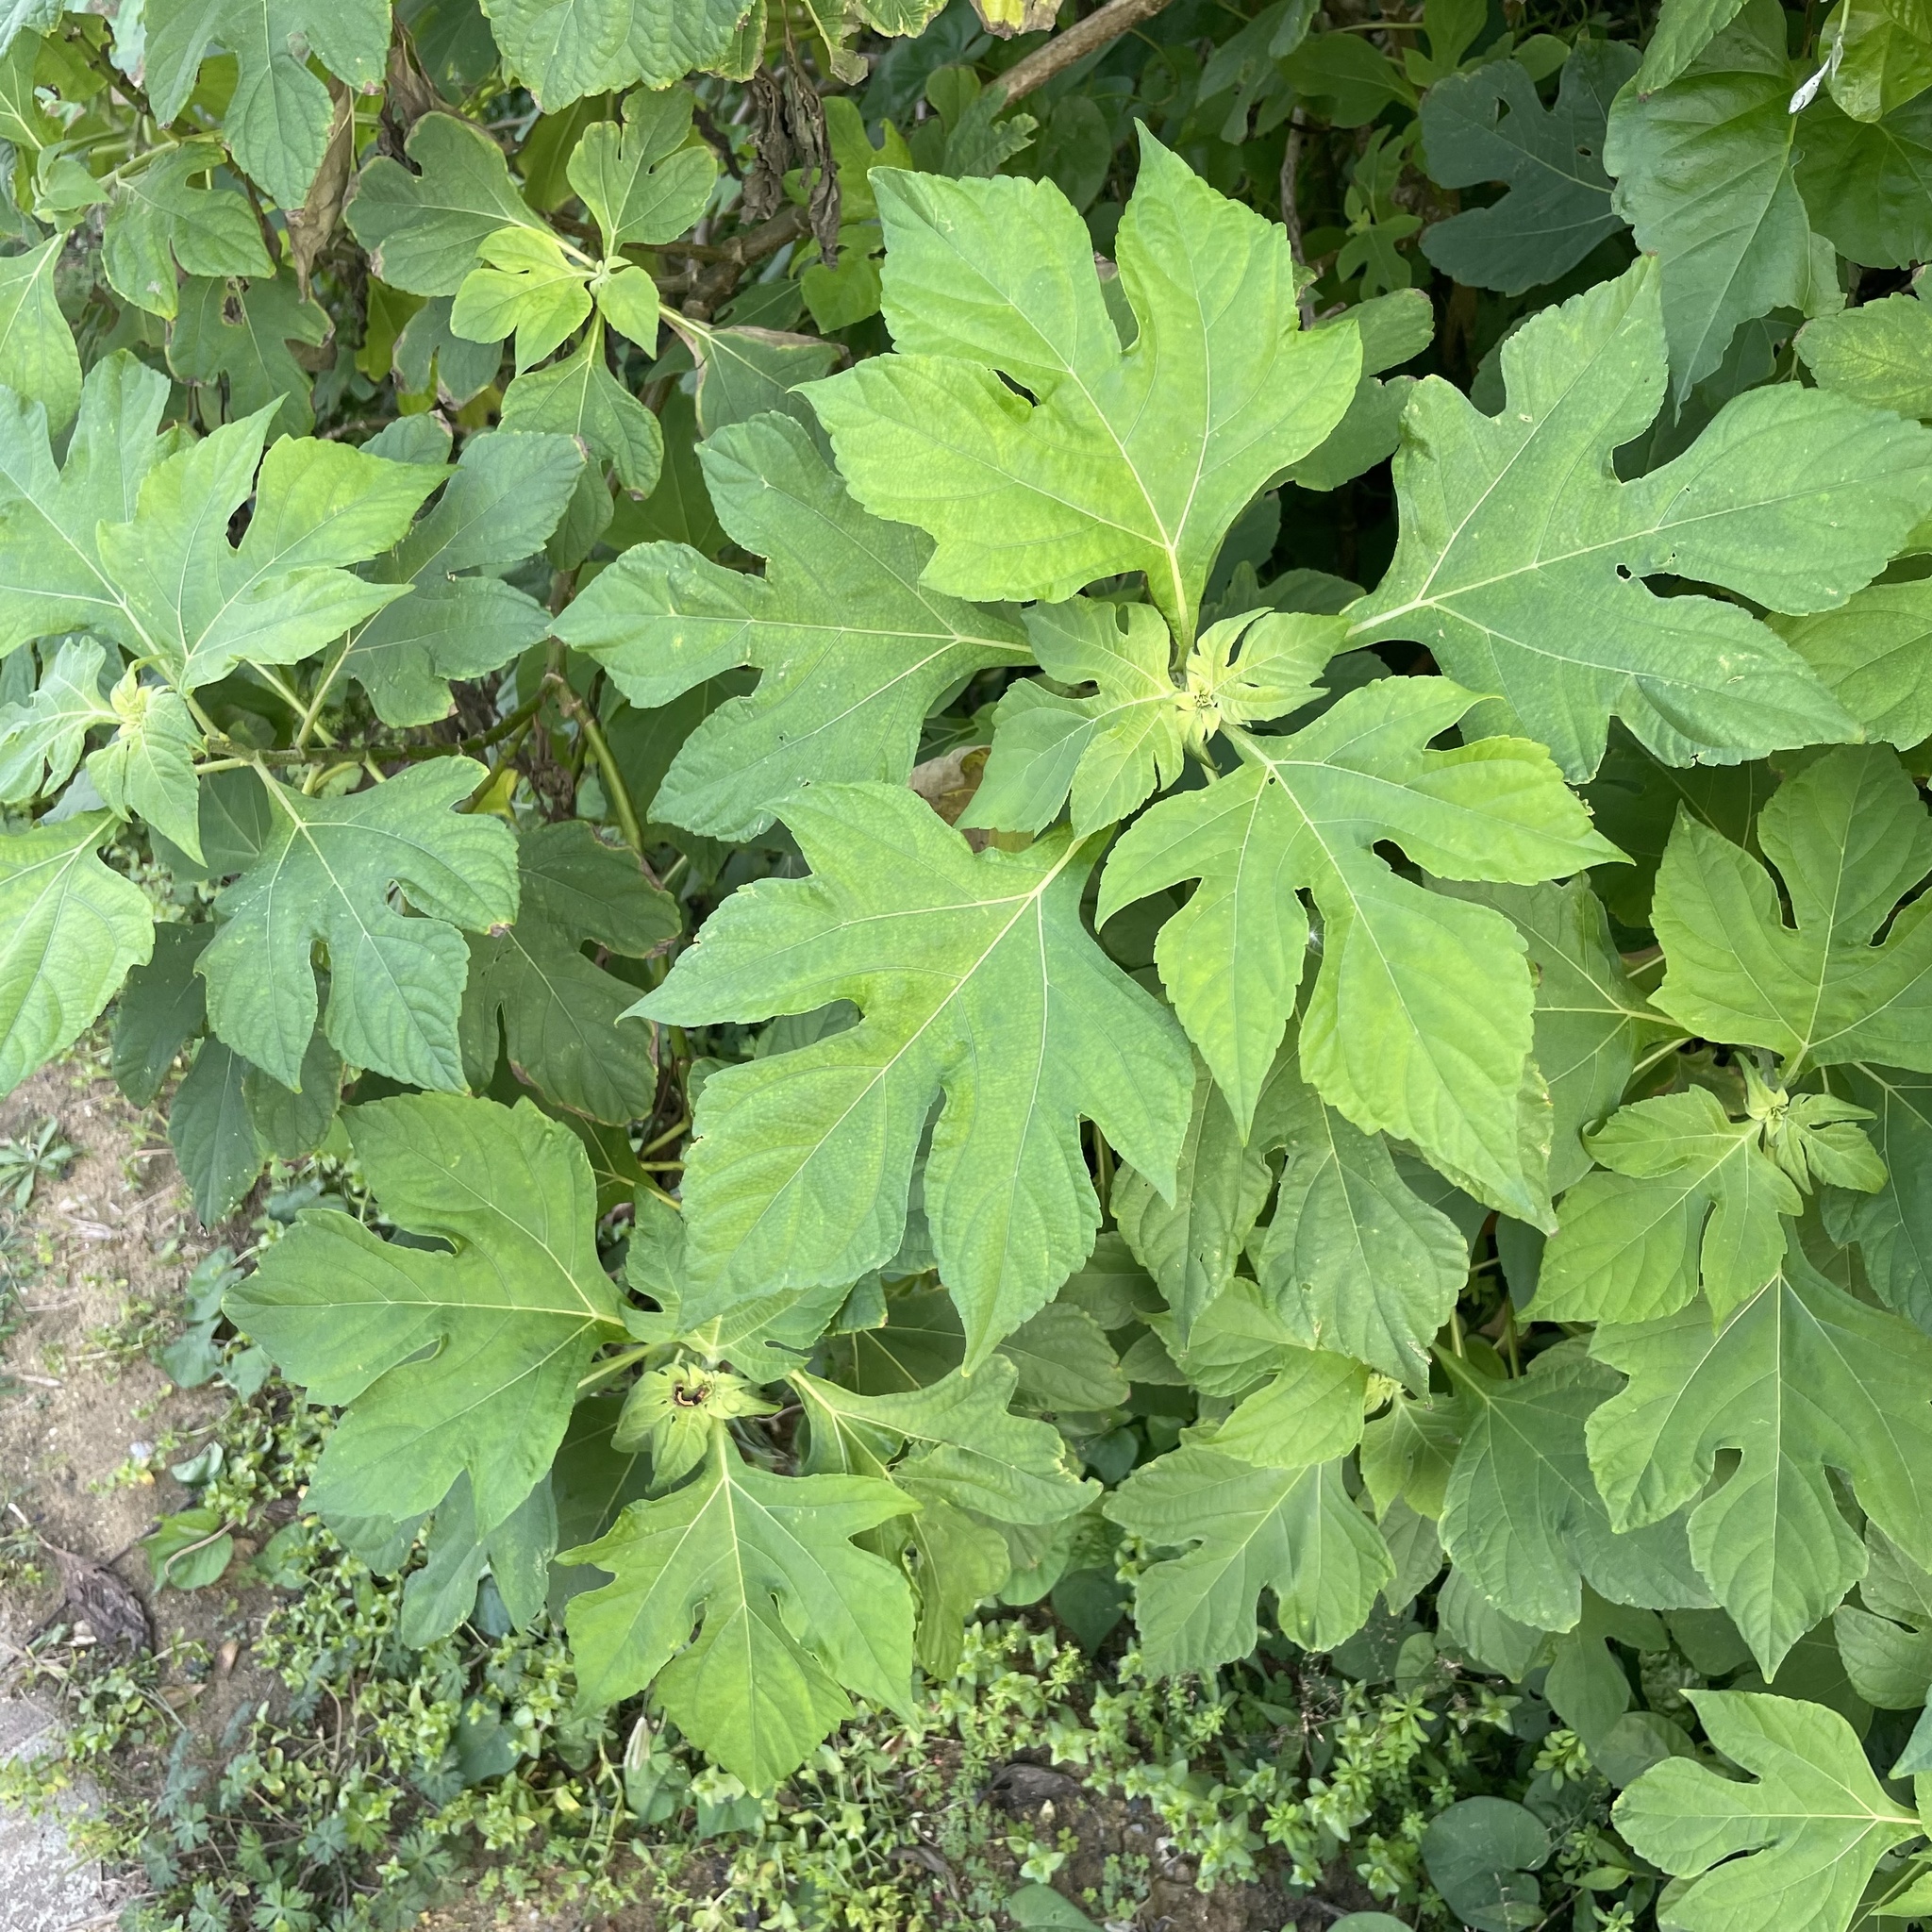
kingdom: Plantae
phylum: Tracheophyta
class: Magnoliopsida
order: Asterales
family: Asteraceae
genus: Tithonia
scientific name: Tithonia diversifolia
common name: Tree marigold
